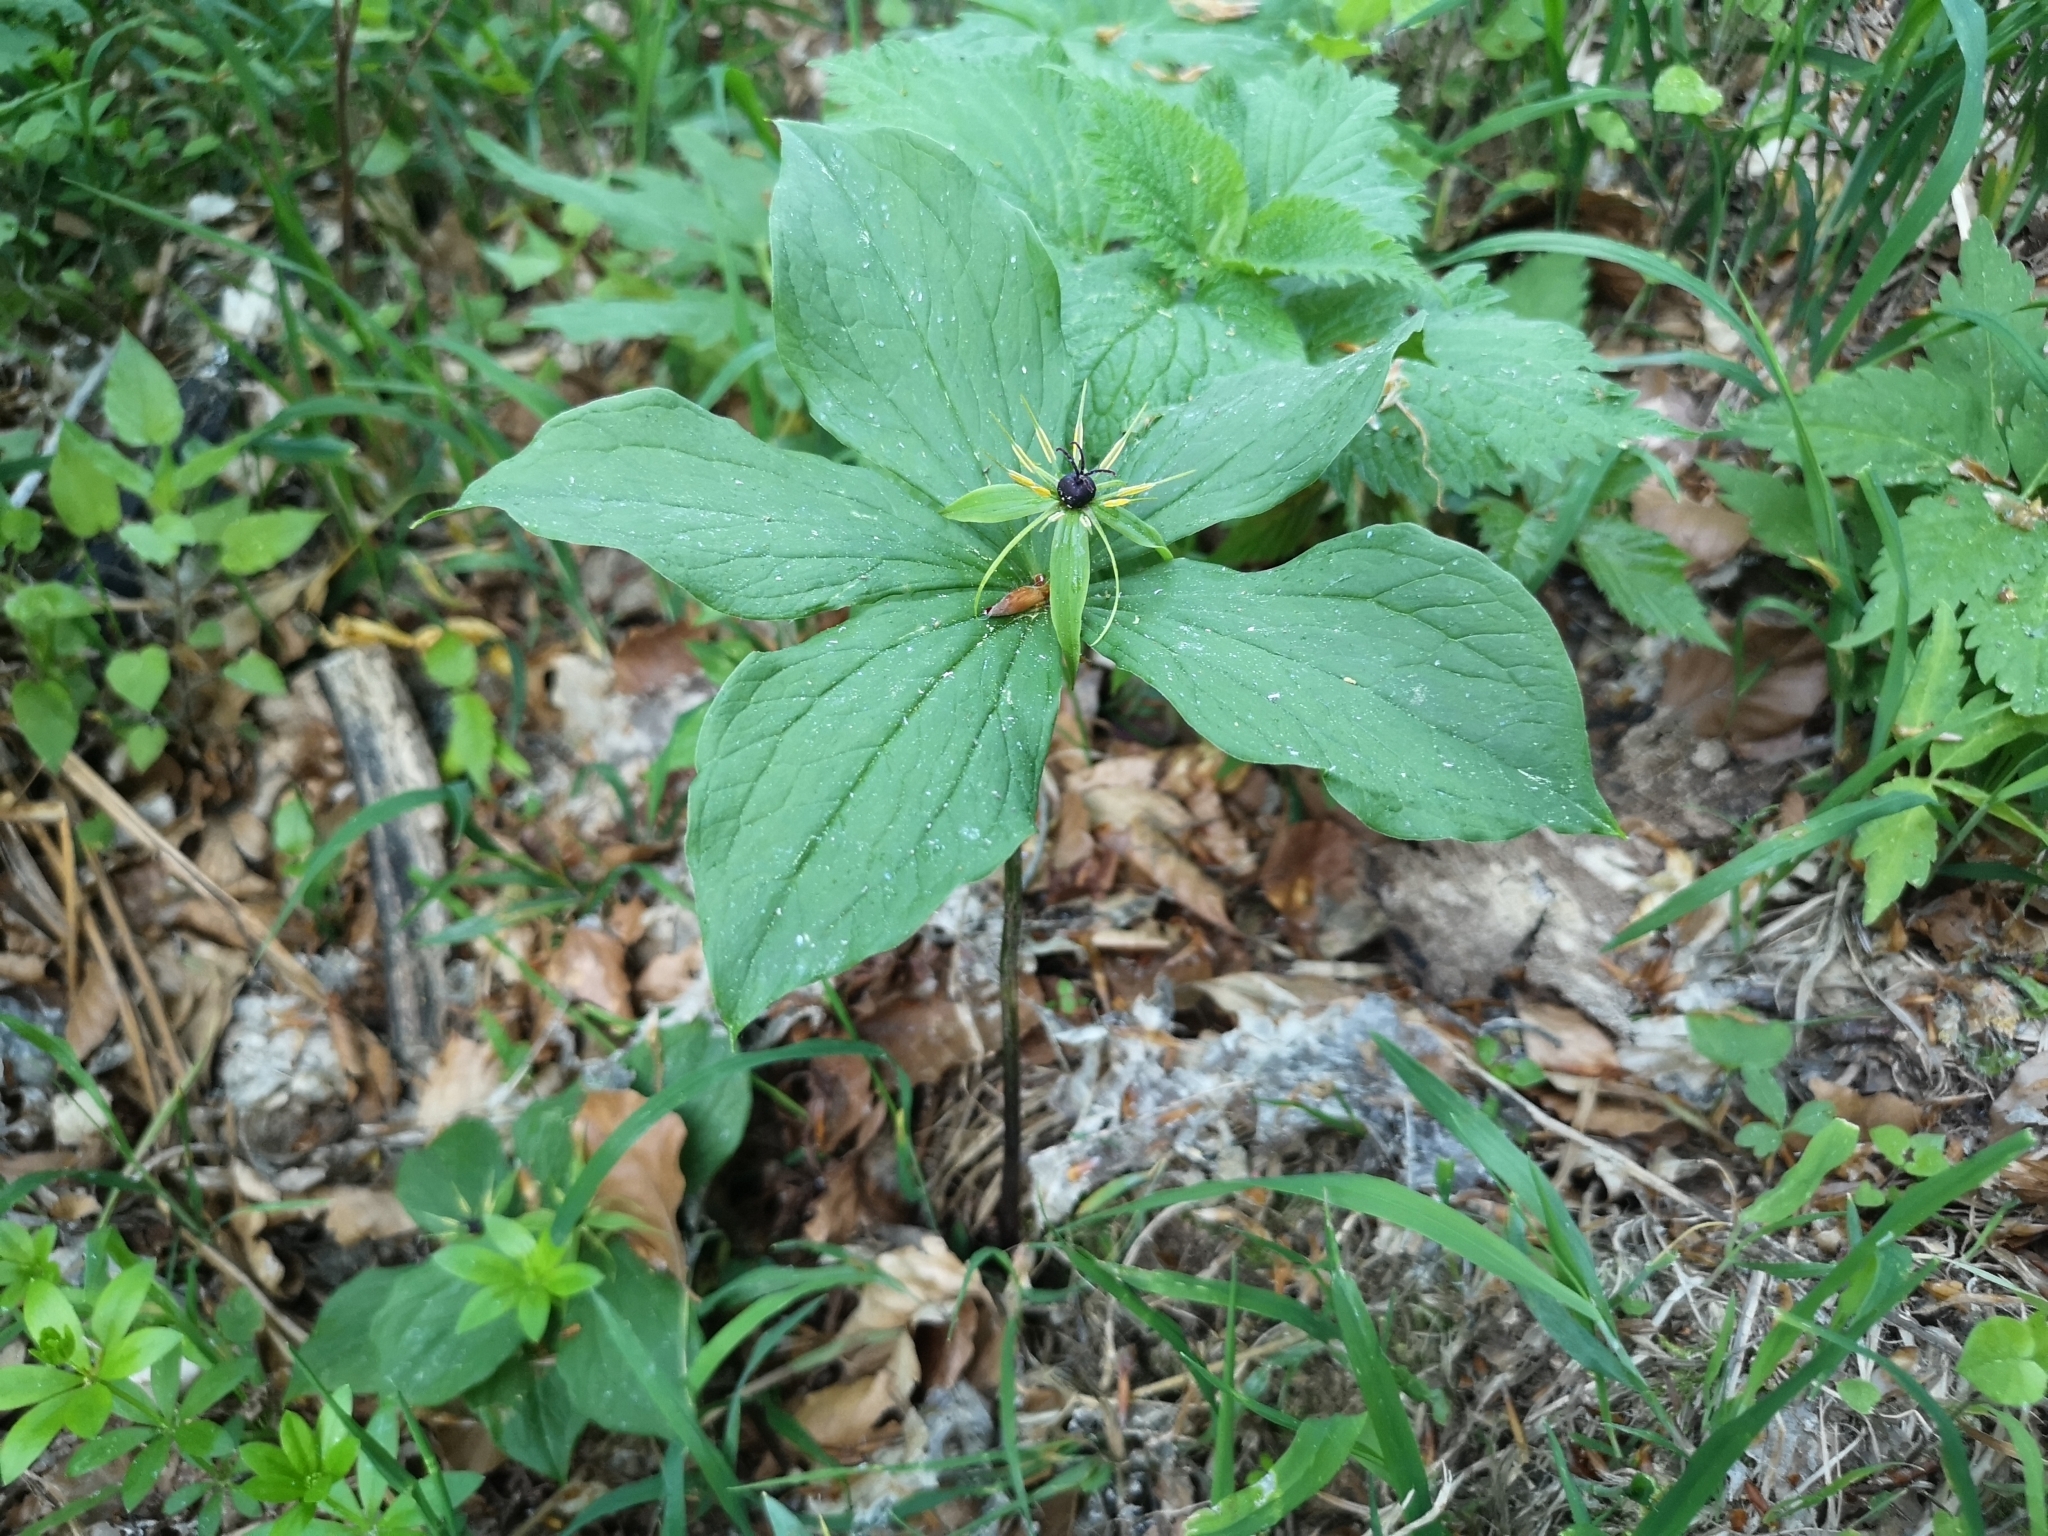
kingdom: Plantae
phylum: Tracheophyta
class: Liliopsida
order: Liliales
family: Melanthiaceae
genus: Paris
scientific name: Paris quadrifolia
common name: Herb-paris
